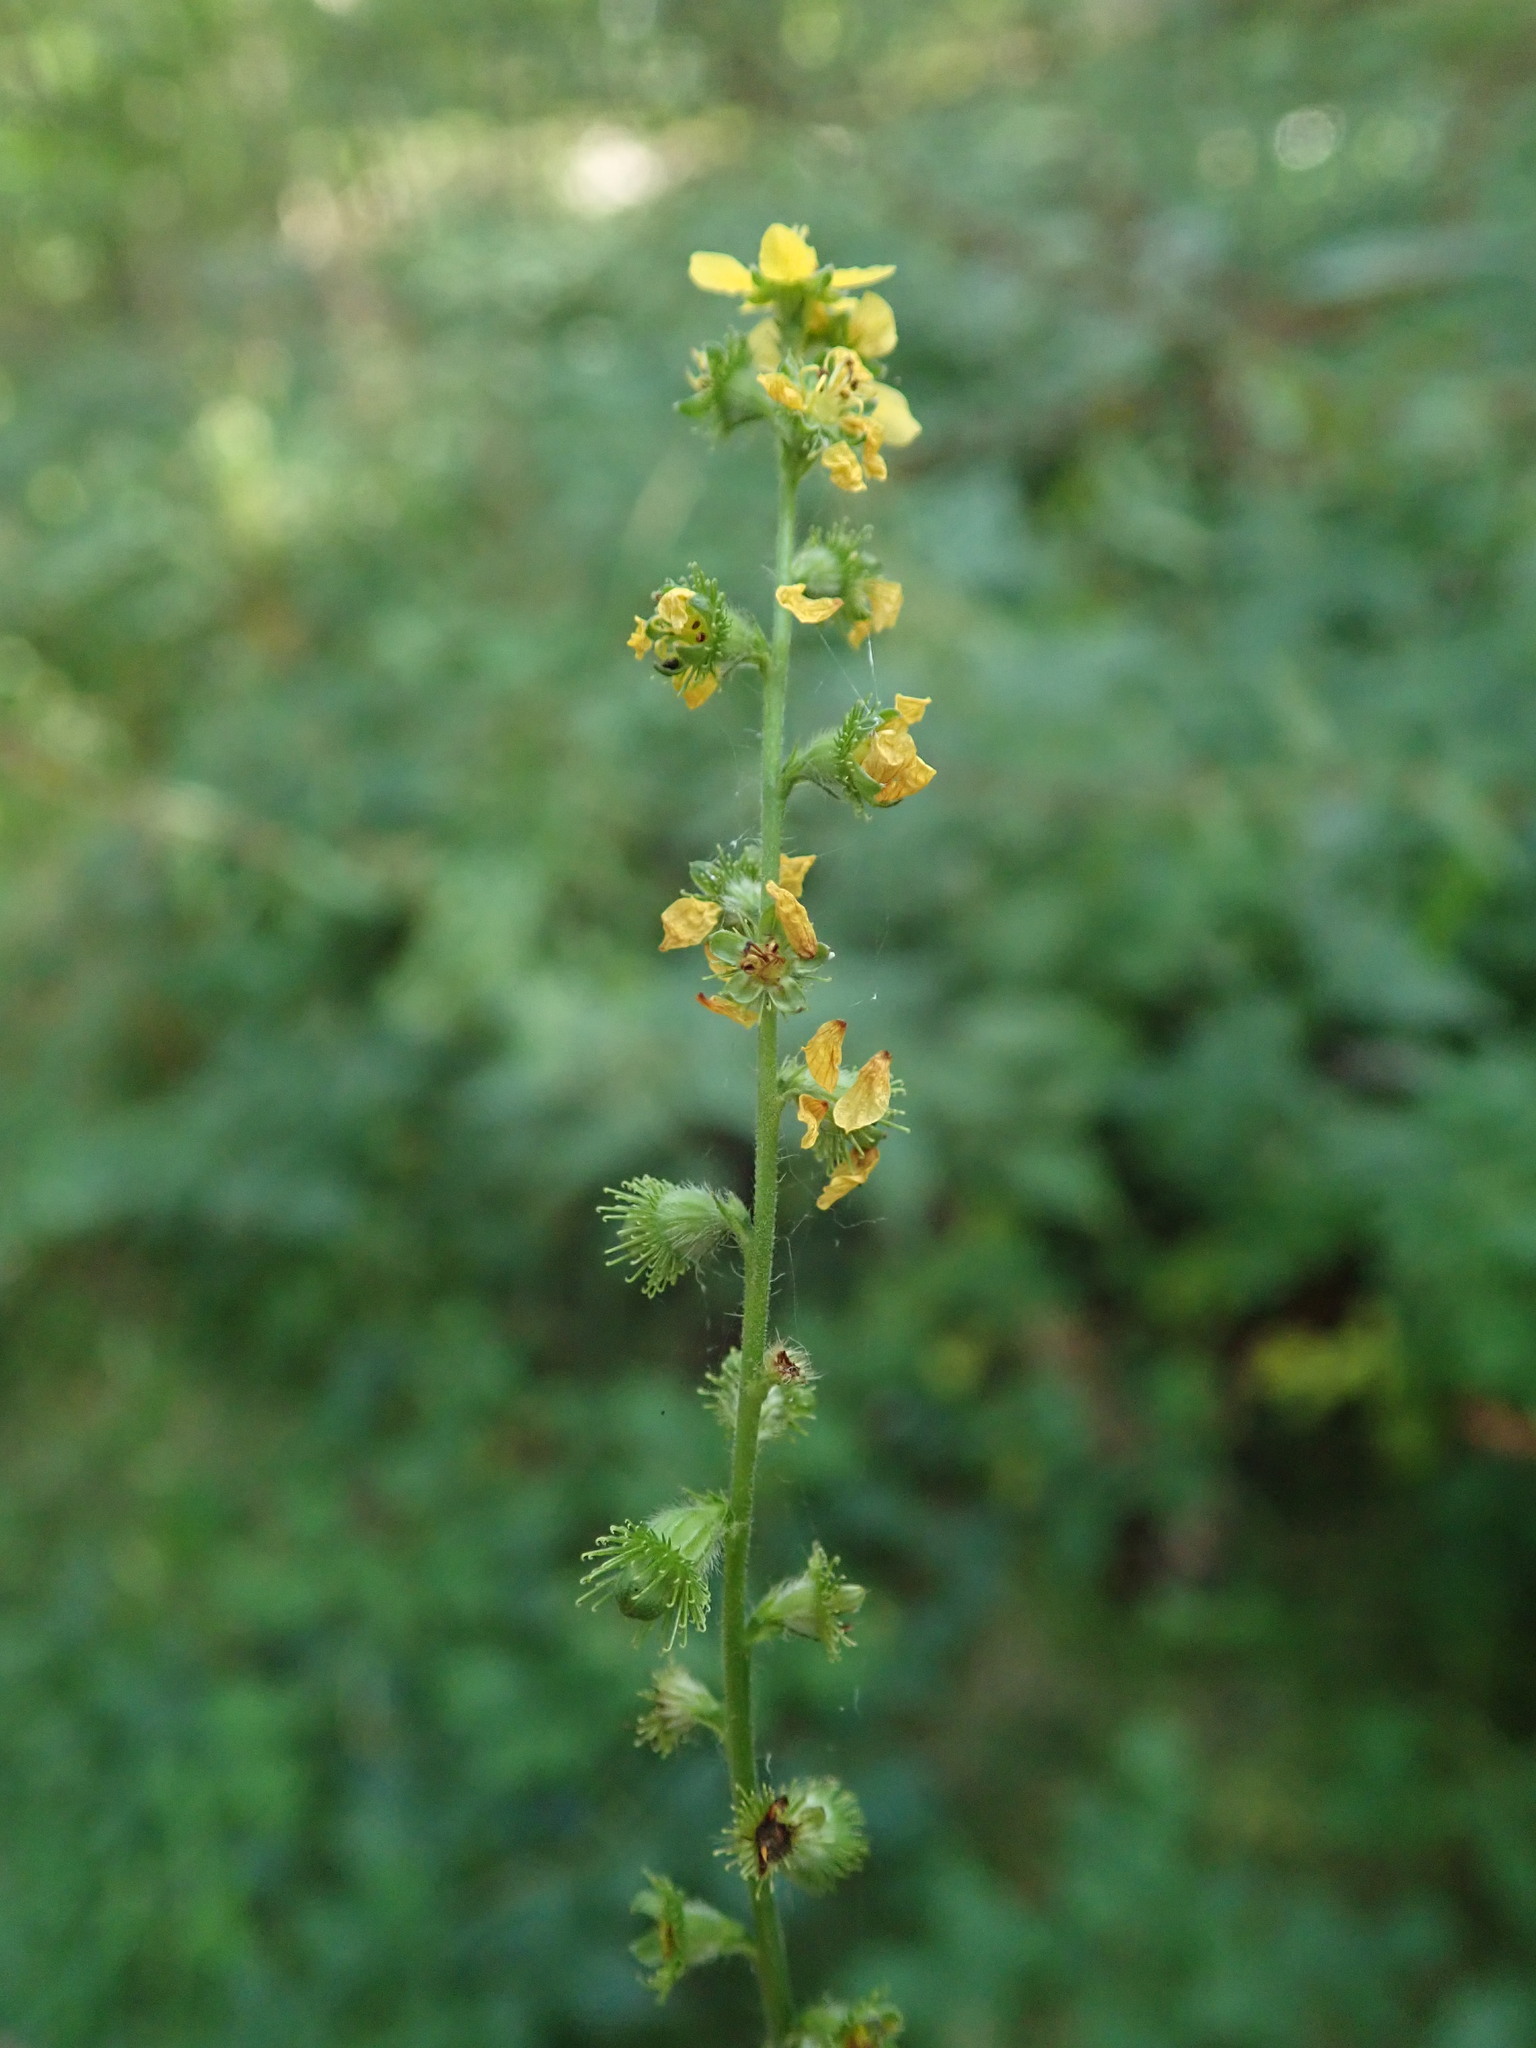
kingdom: Plantae
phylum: Tracheophyta
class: Magnoliopsida
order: Rosales
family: Rosaceae
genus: Agrimonia
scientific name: Agrimonia eupatoria
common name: Agrimony
